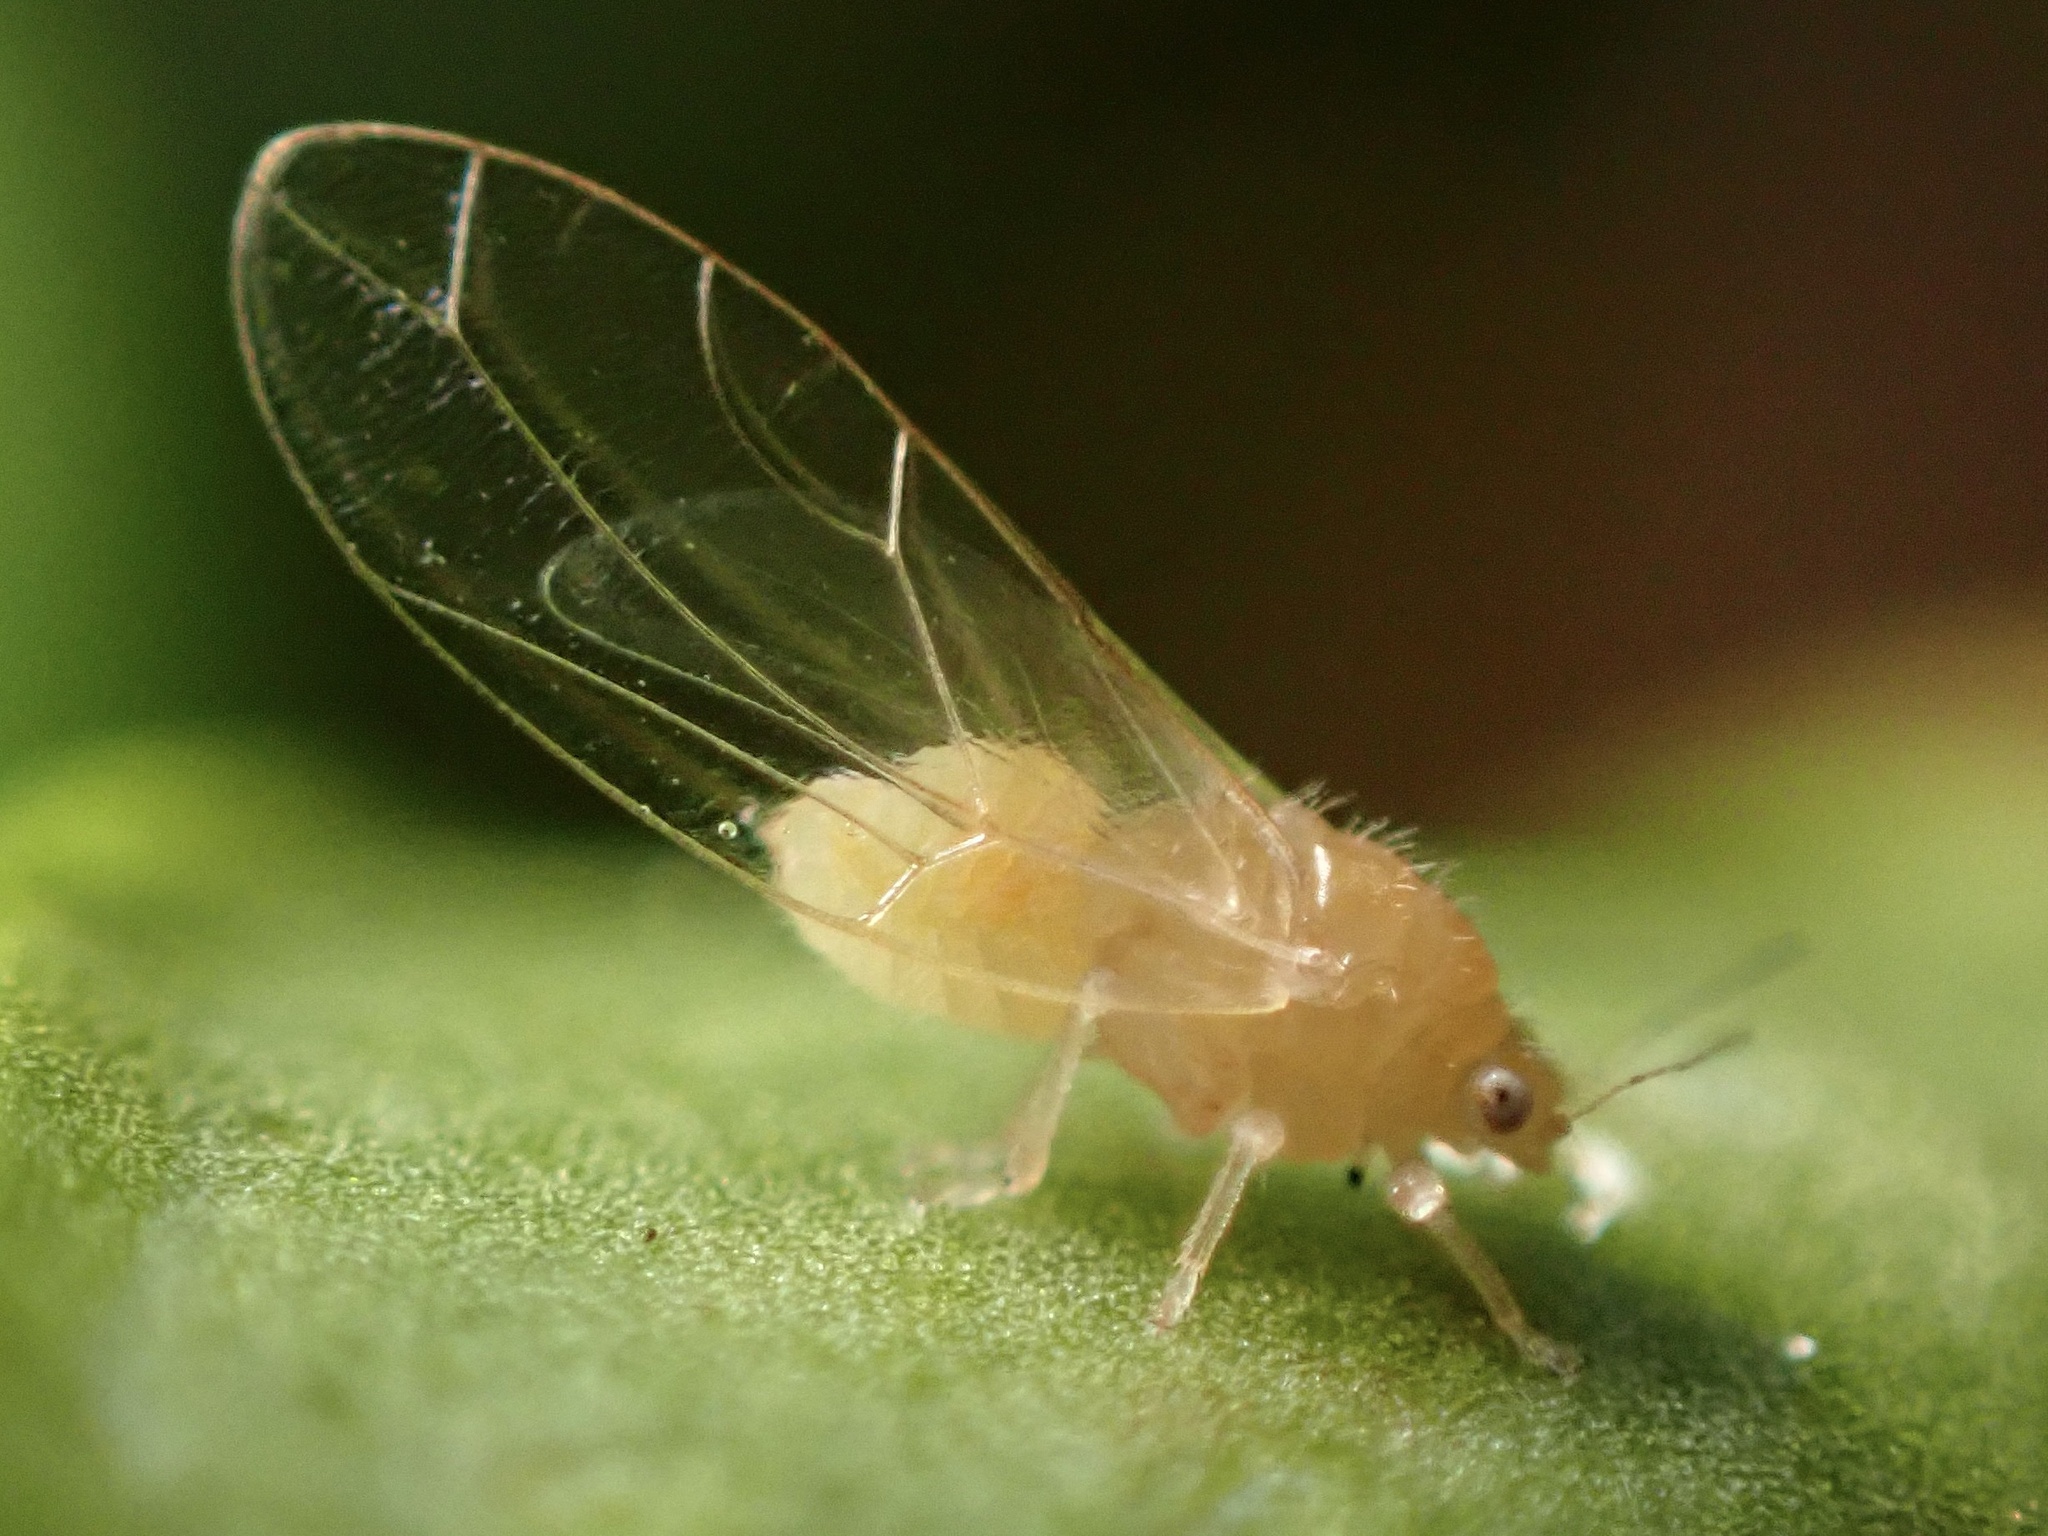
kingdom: Animalia
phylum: Arthropoda
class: Insecta
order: Hemiptera
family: Triozidae
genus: Trioza
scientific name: Trioza adventicia
